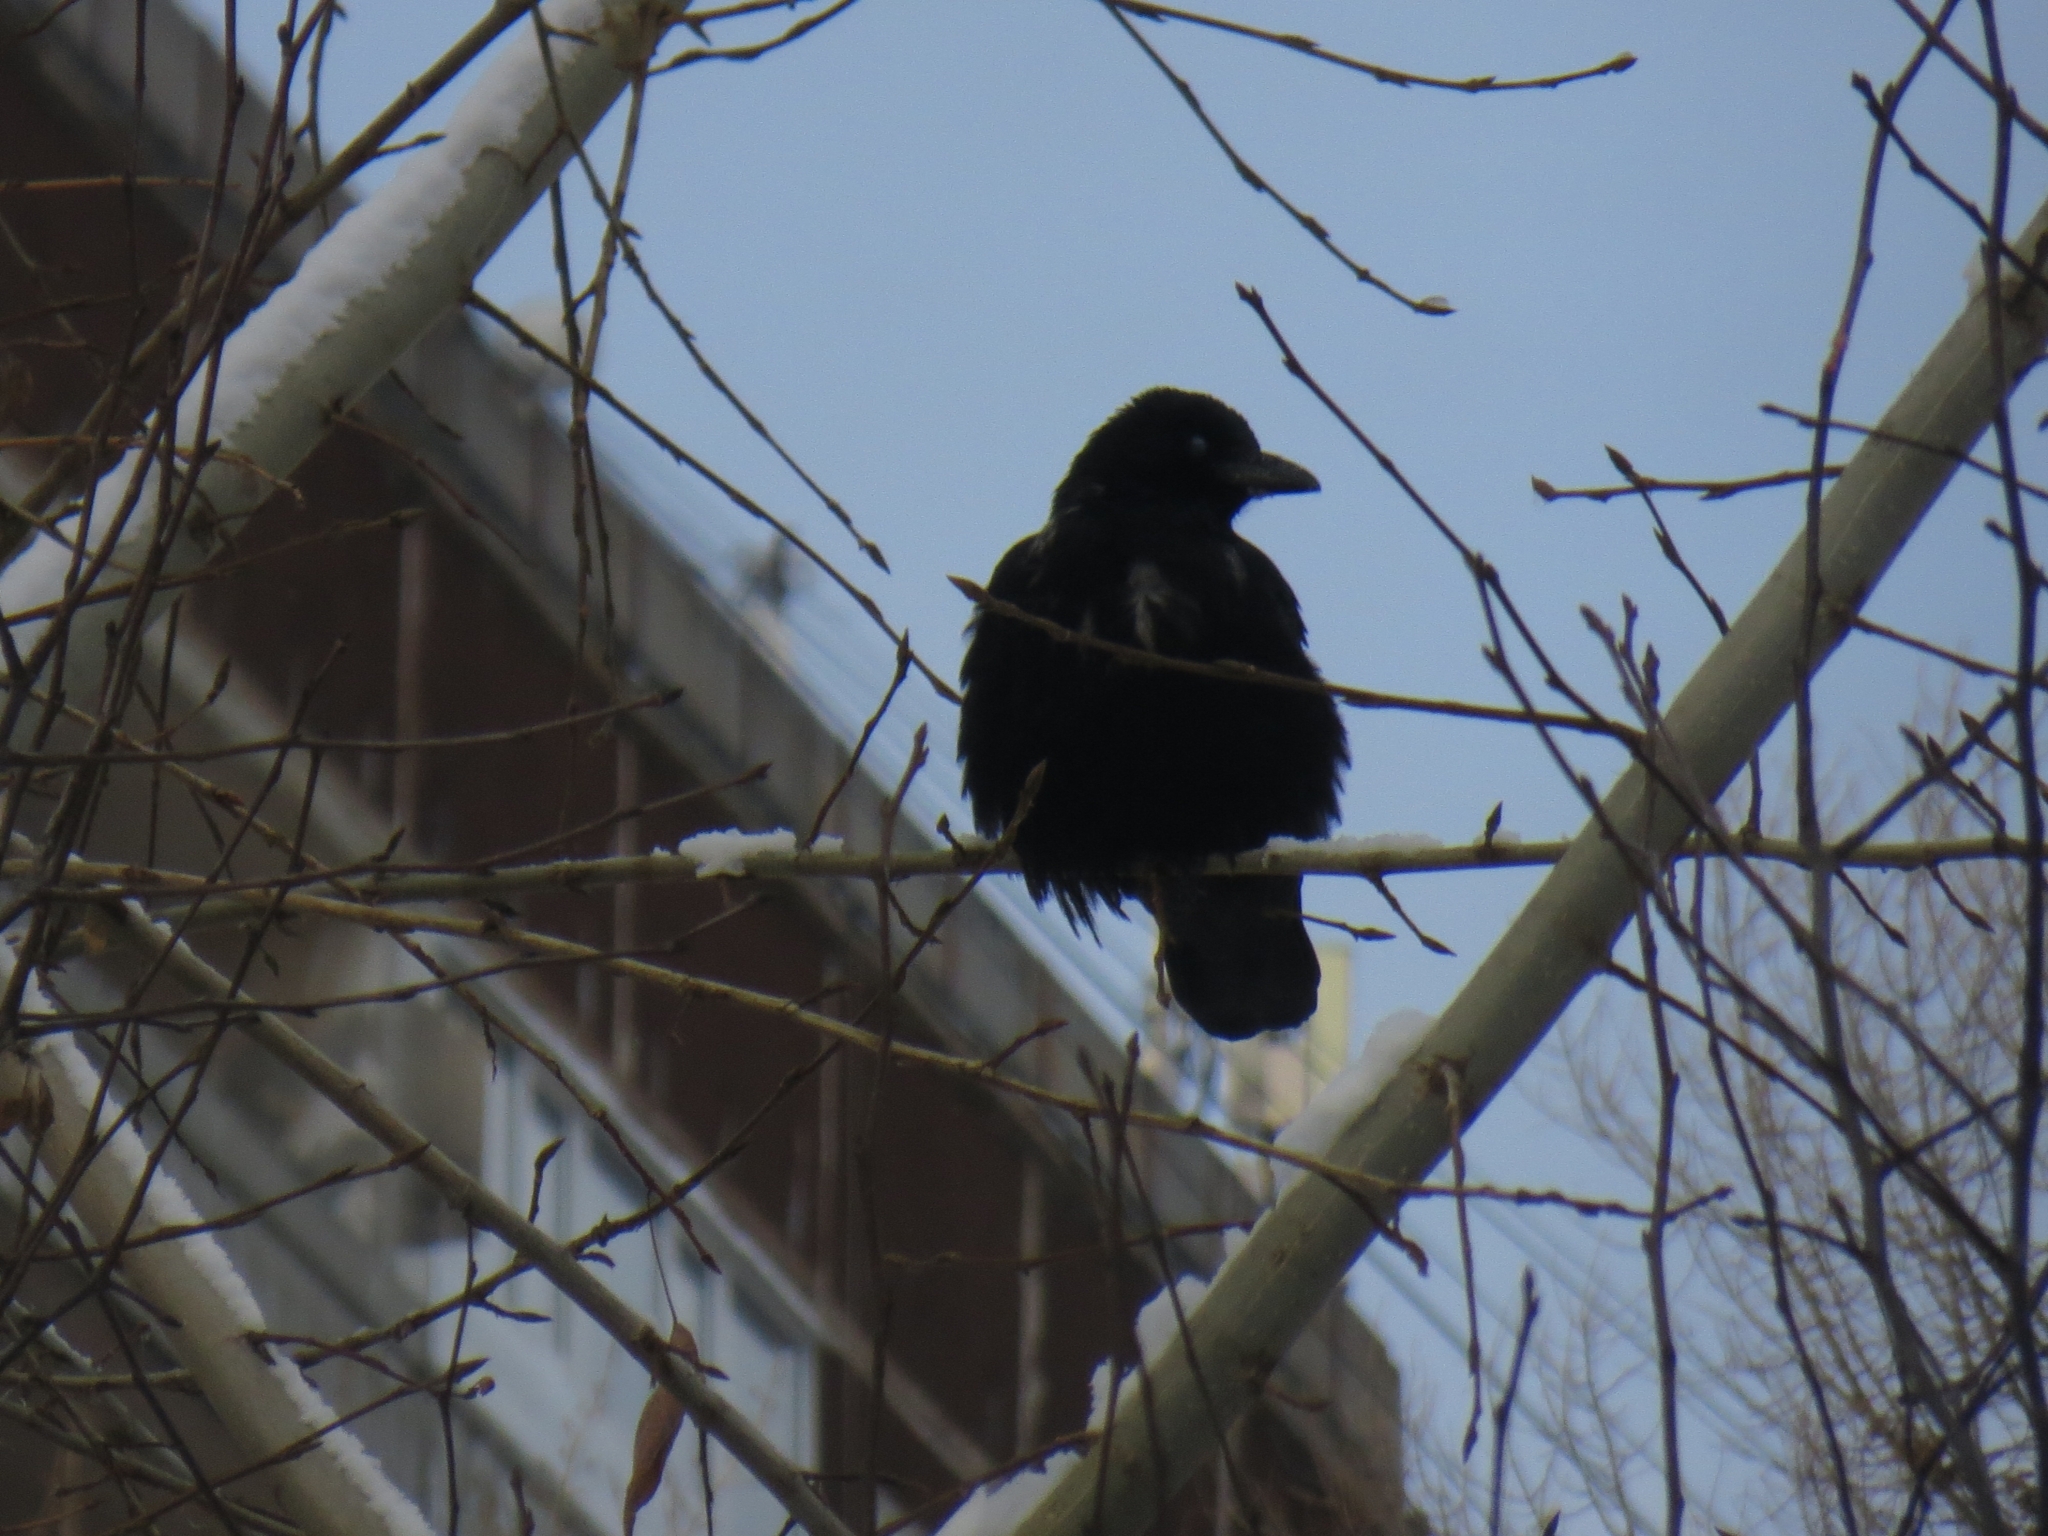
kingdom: Animalia
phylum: Chordata
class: Aves
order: Passeriformes
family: Corvidae
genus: Corvus
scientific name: Corvus
